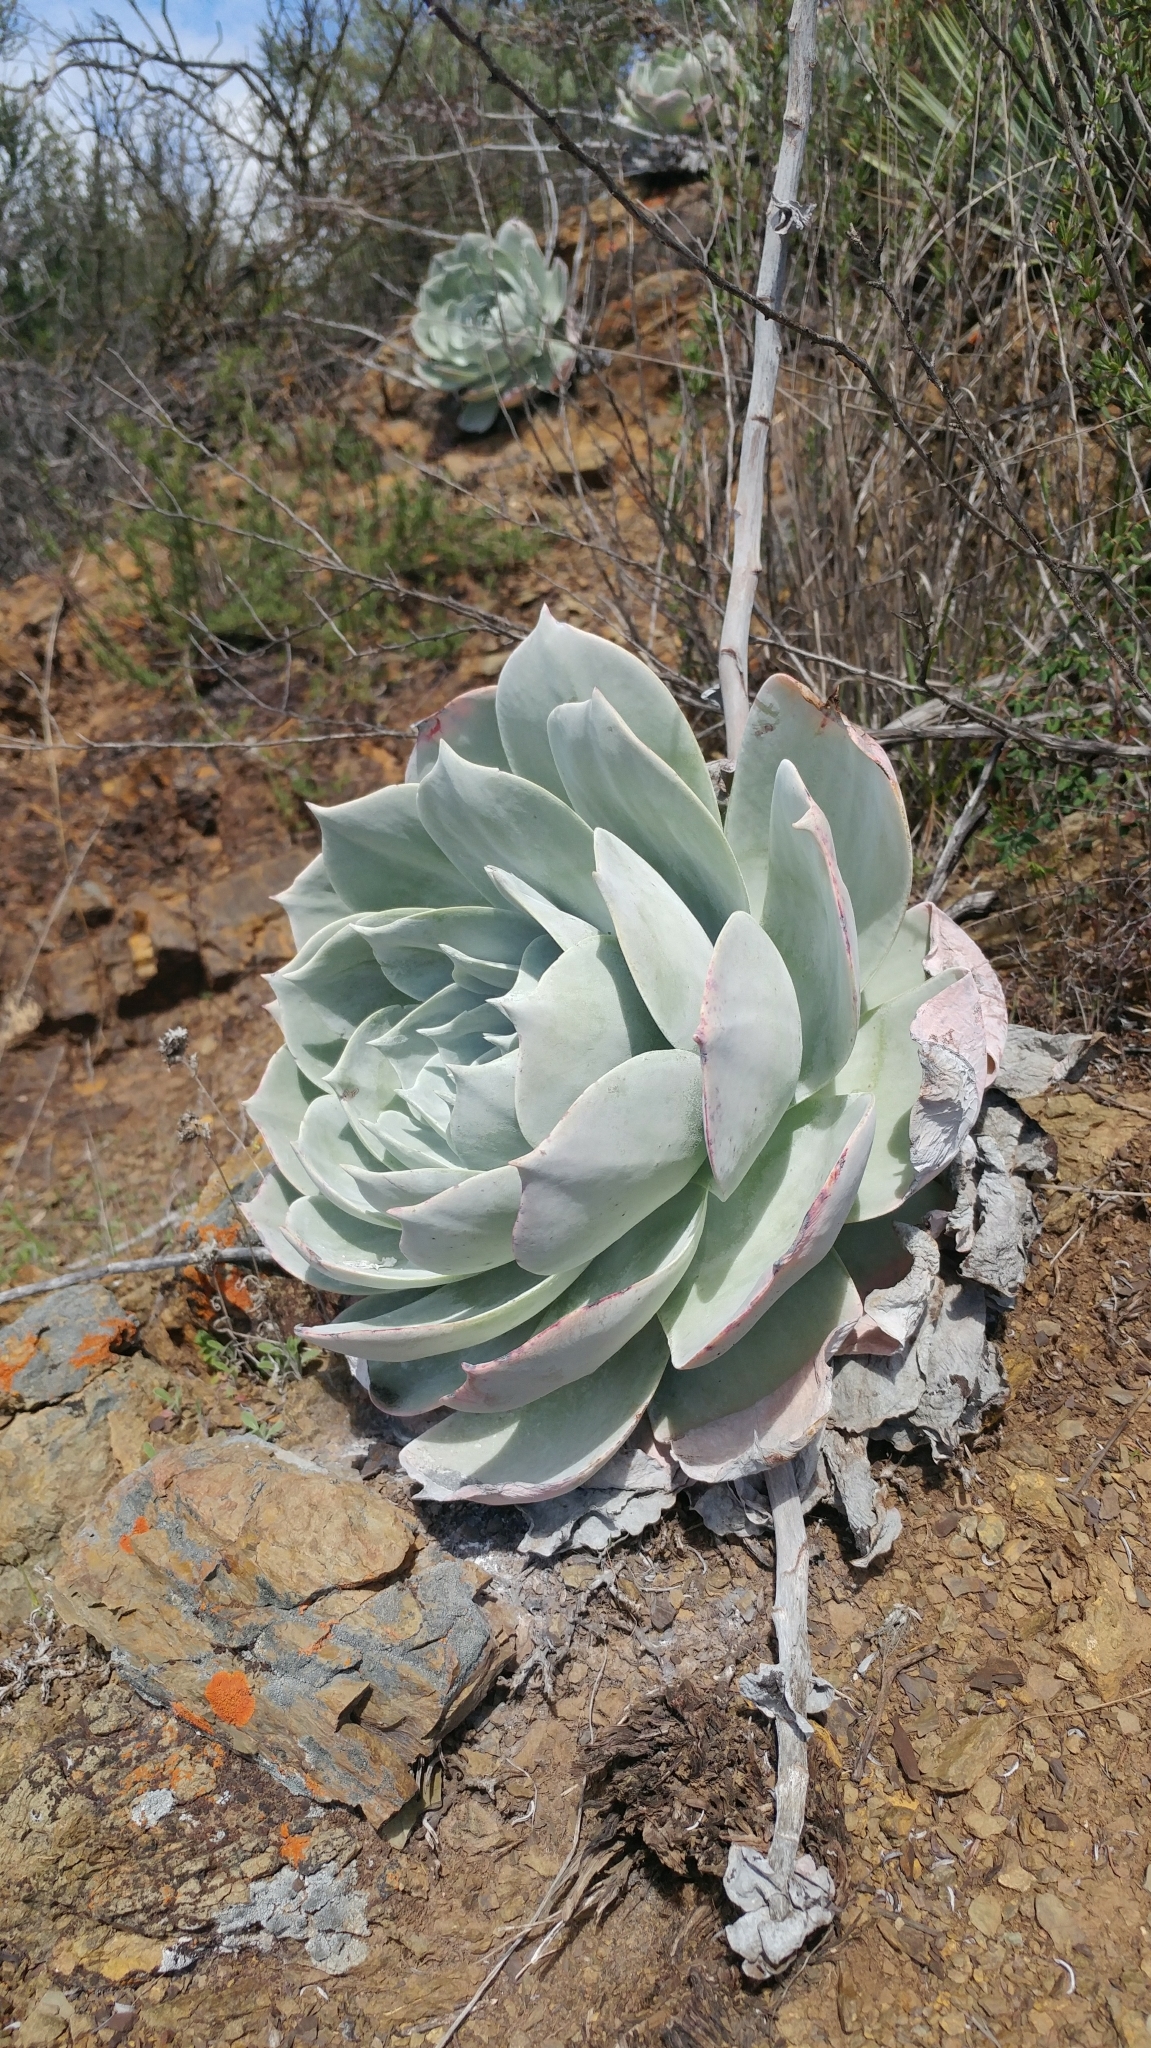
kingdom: Plantae
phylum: Tracheophyta
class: Magnoliopsida
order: Saxifragales
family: Crassulaceae
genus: Dudleya
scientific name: Dudleya pulverulenta
